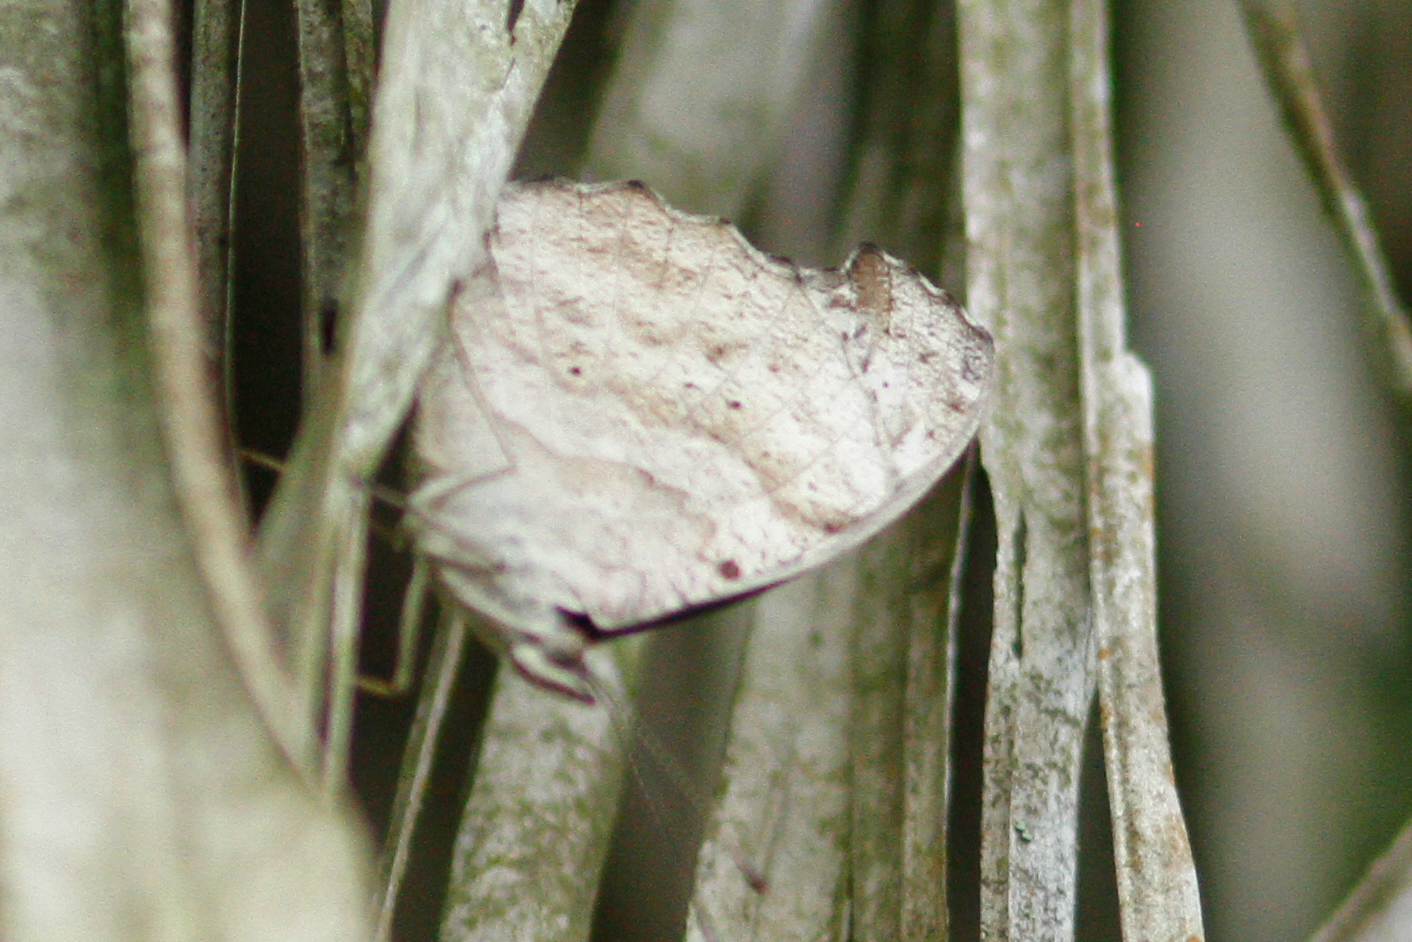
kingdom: Animalia
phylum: Arthropoda
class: Insecta
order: Lepidoptera
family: Nymphalidae
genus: Myscelia
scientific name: Myscelia cyaniris
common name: Whitened bluewing
